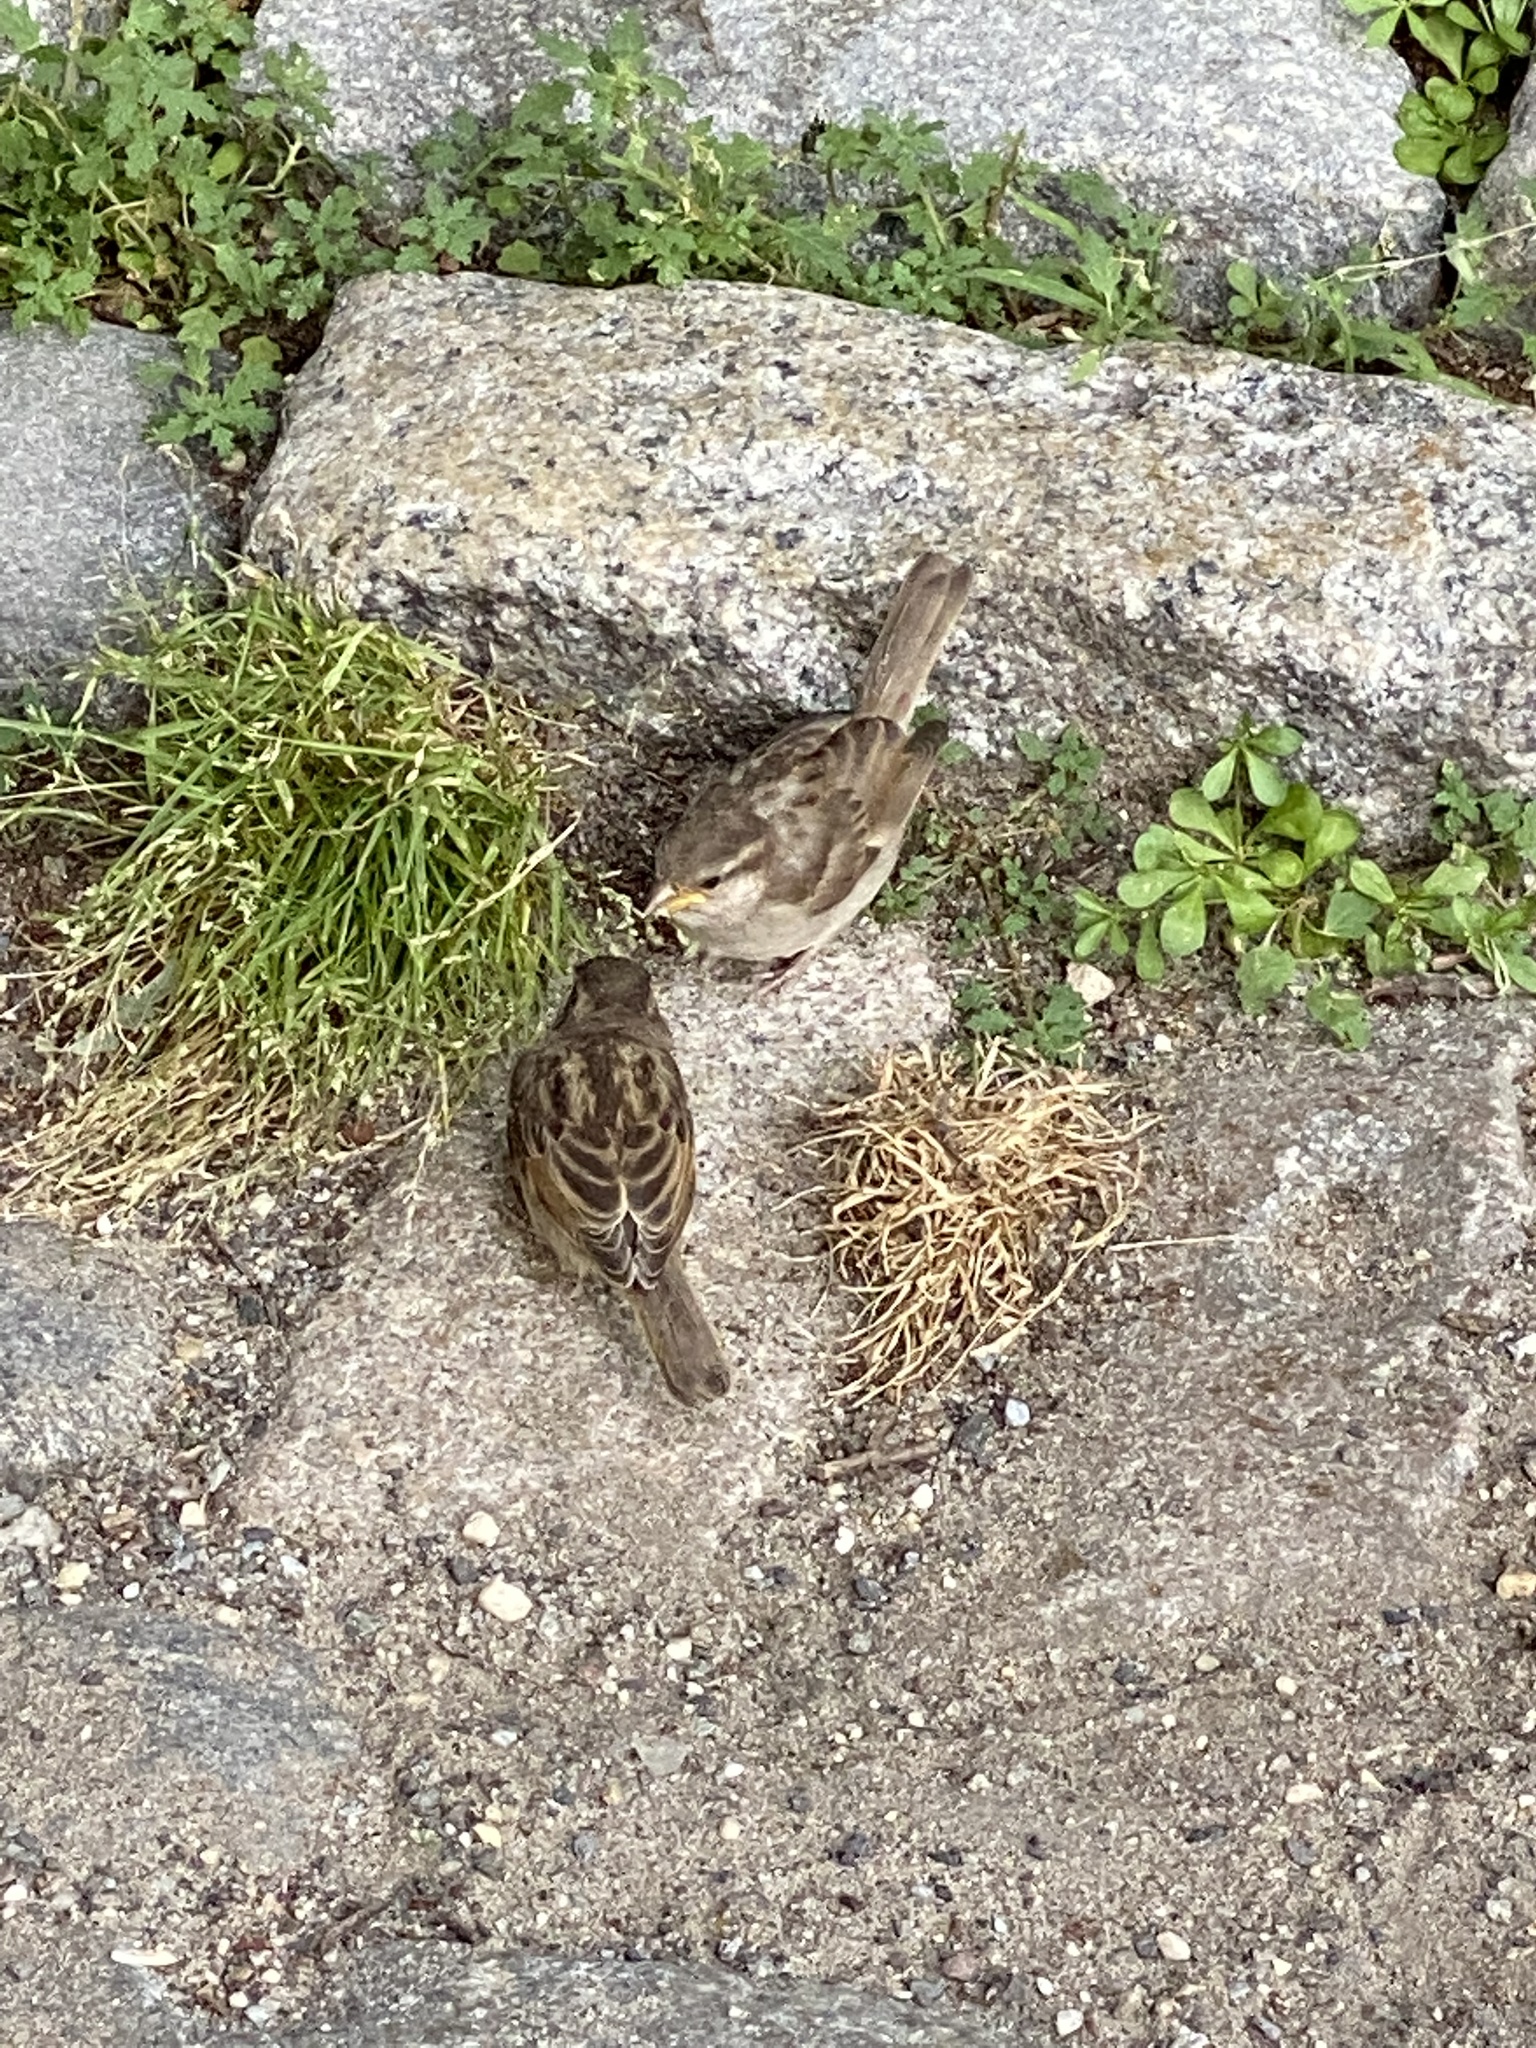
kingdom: Animalia
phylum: Chordata
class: Aves
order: Passeriformes
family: Passeridae
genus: Passer
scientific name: Passer domesticus
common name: House sparrow
